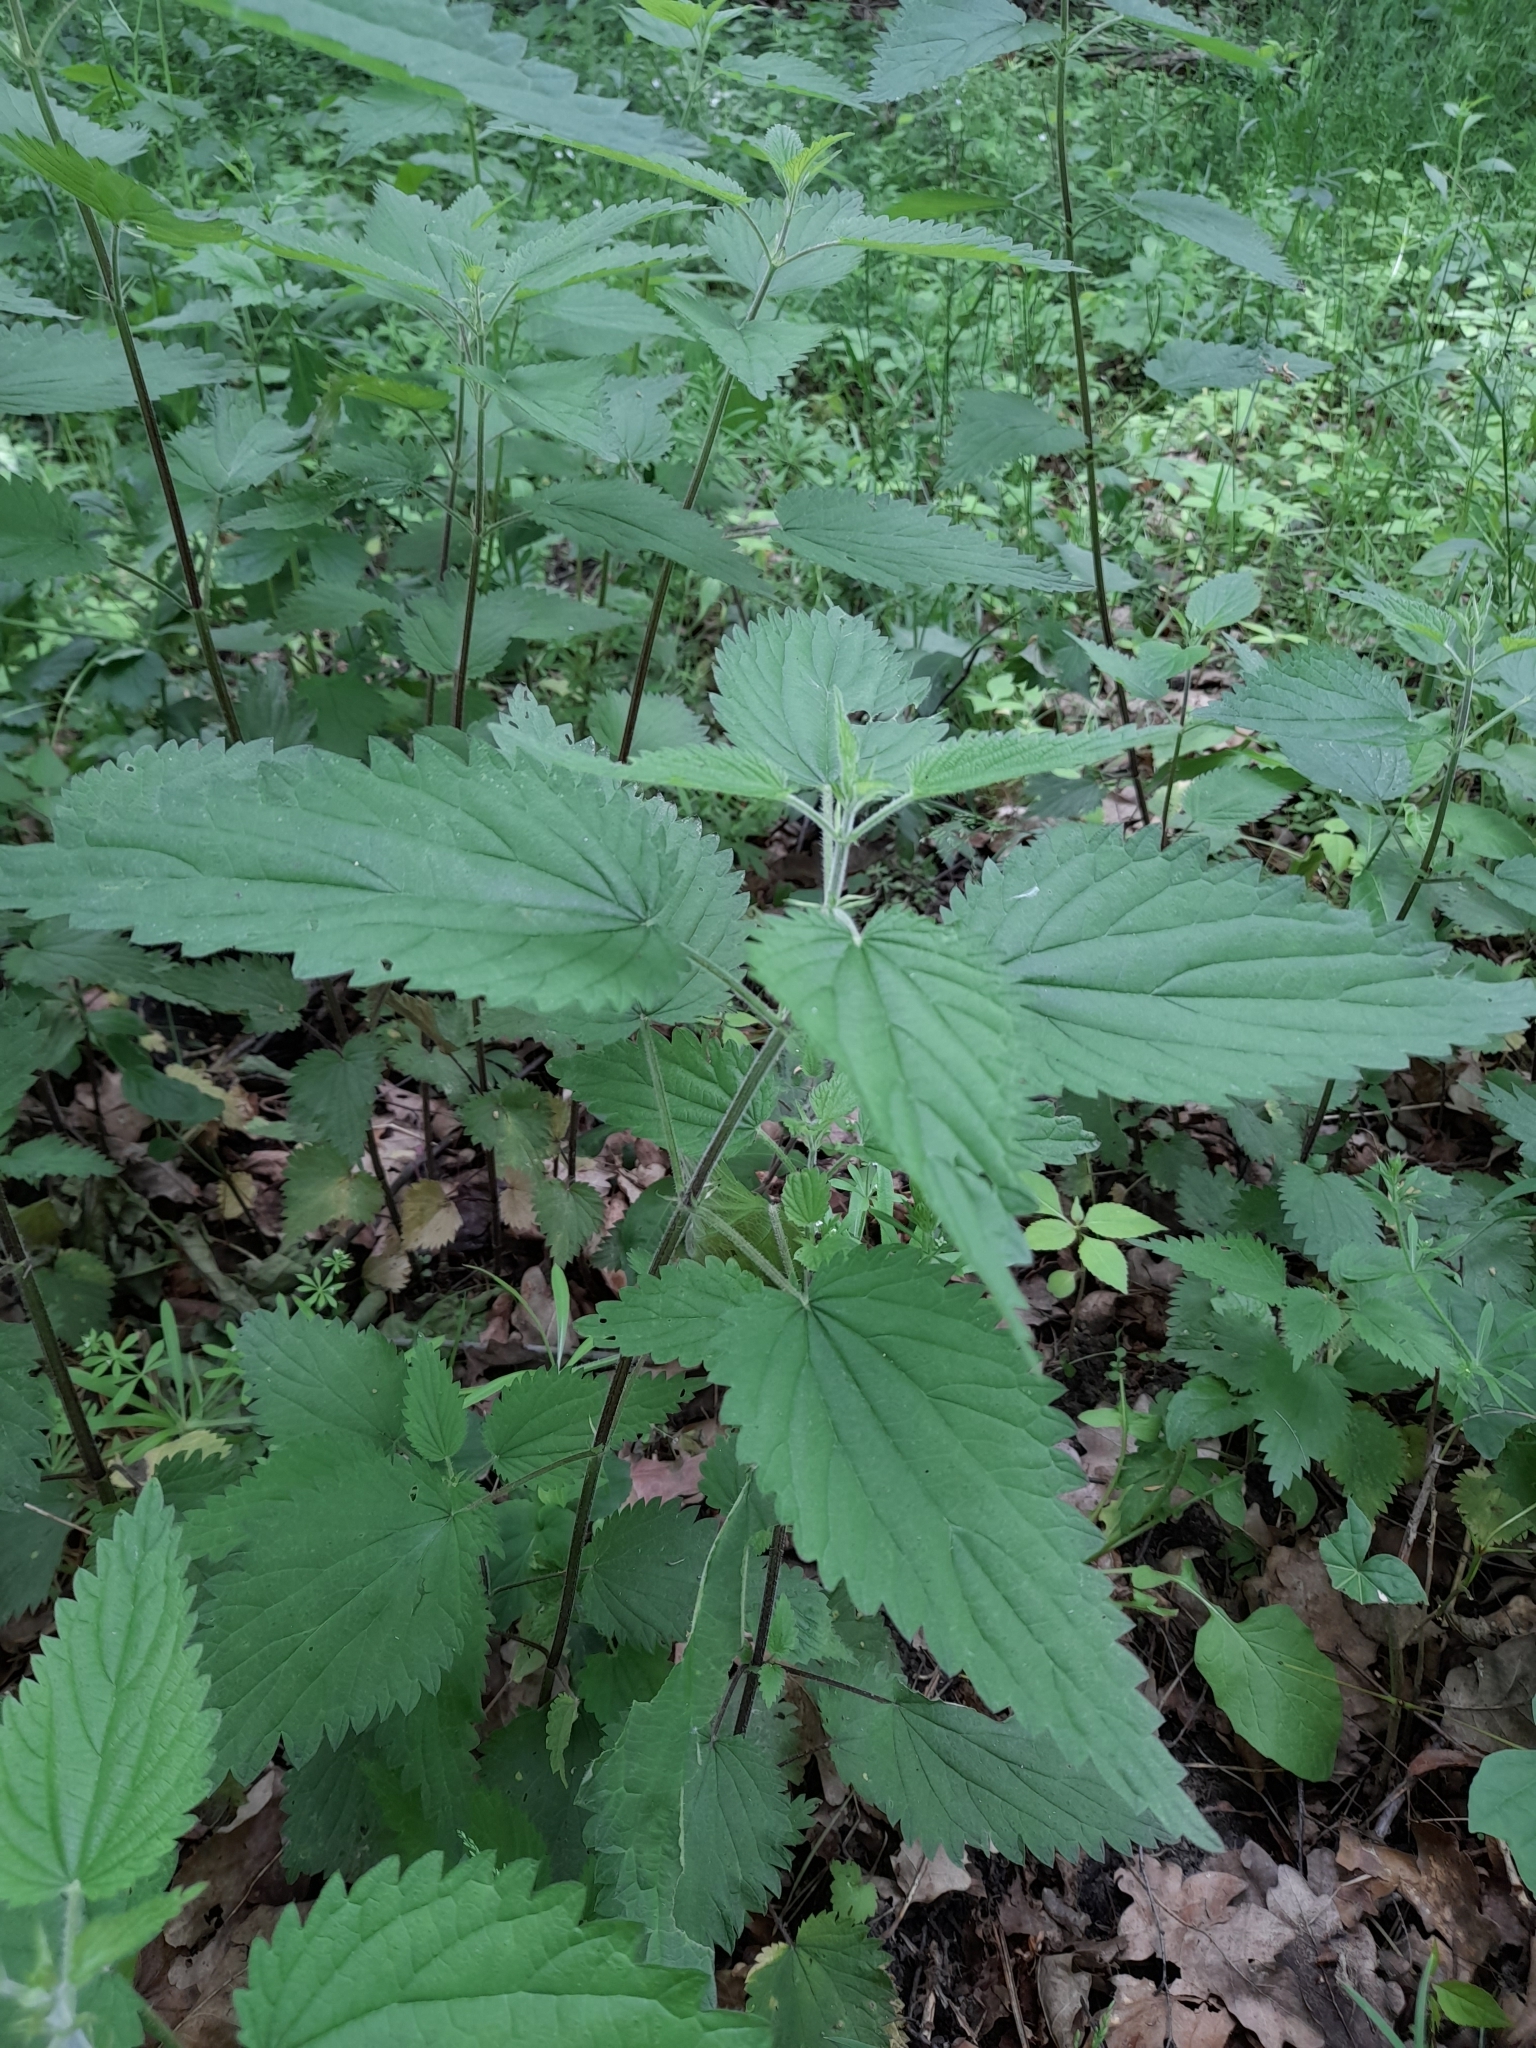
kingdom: Plantae
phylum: Tracheophyta
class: Magnoliopsida
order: Rosales
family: Urticaceae
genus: Urtica
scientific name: Urtica dioica
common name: Common nettle
